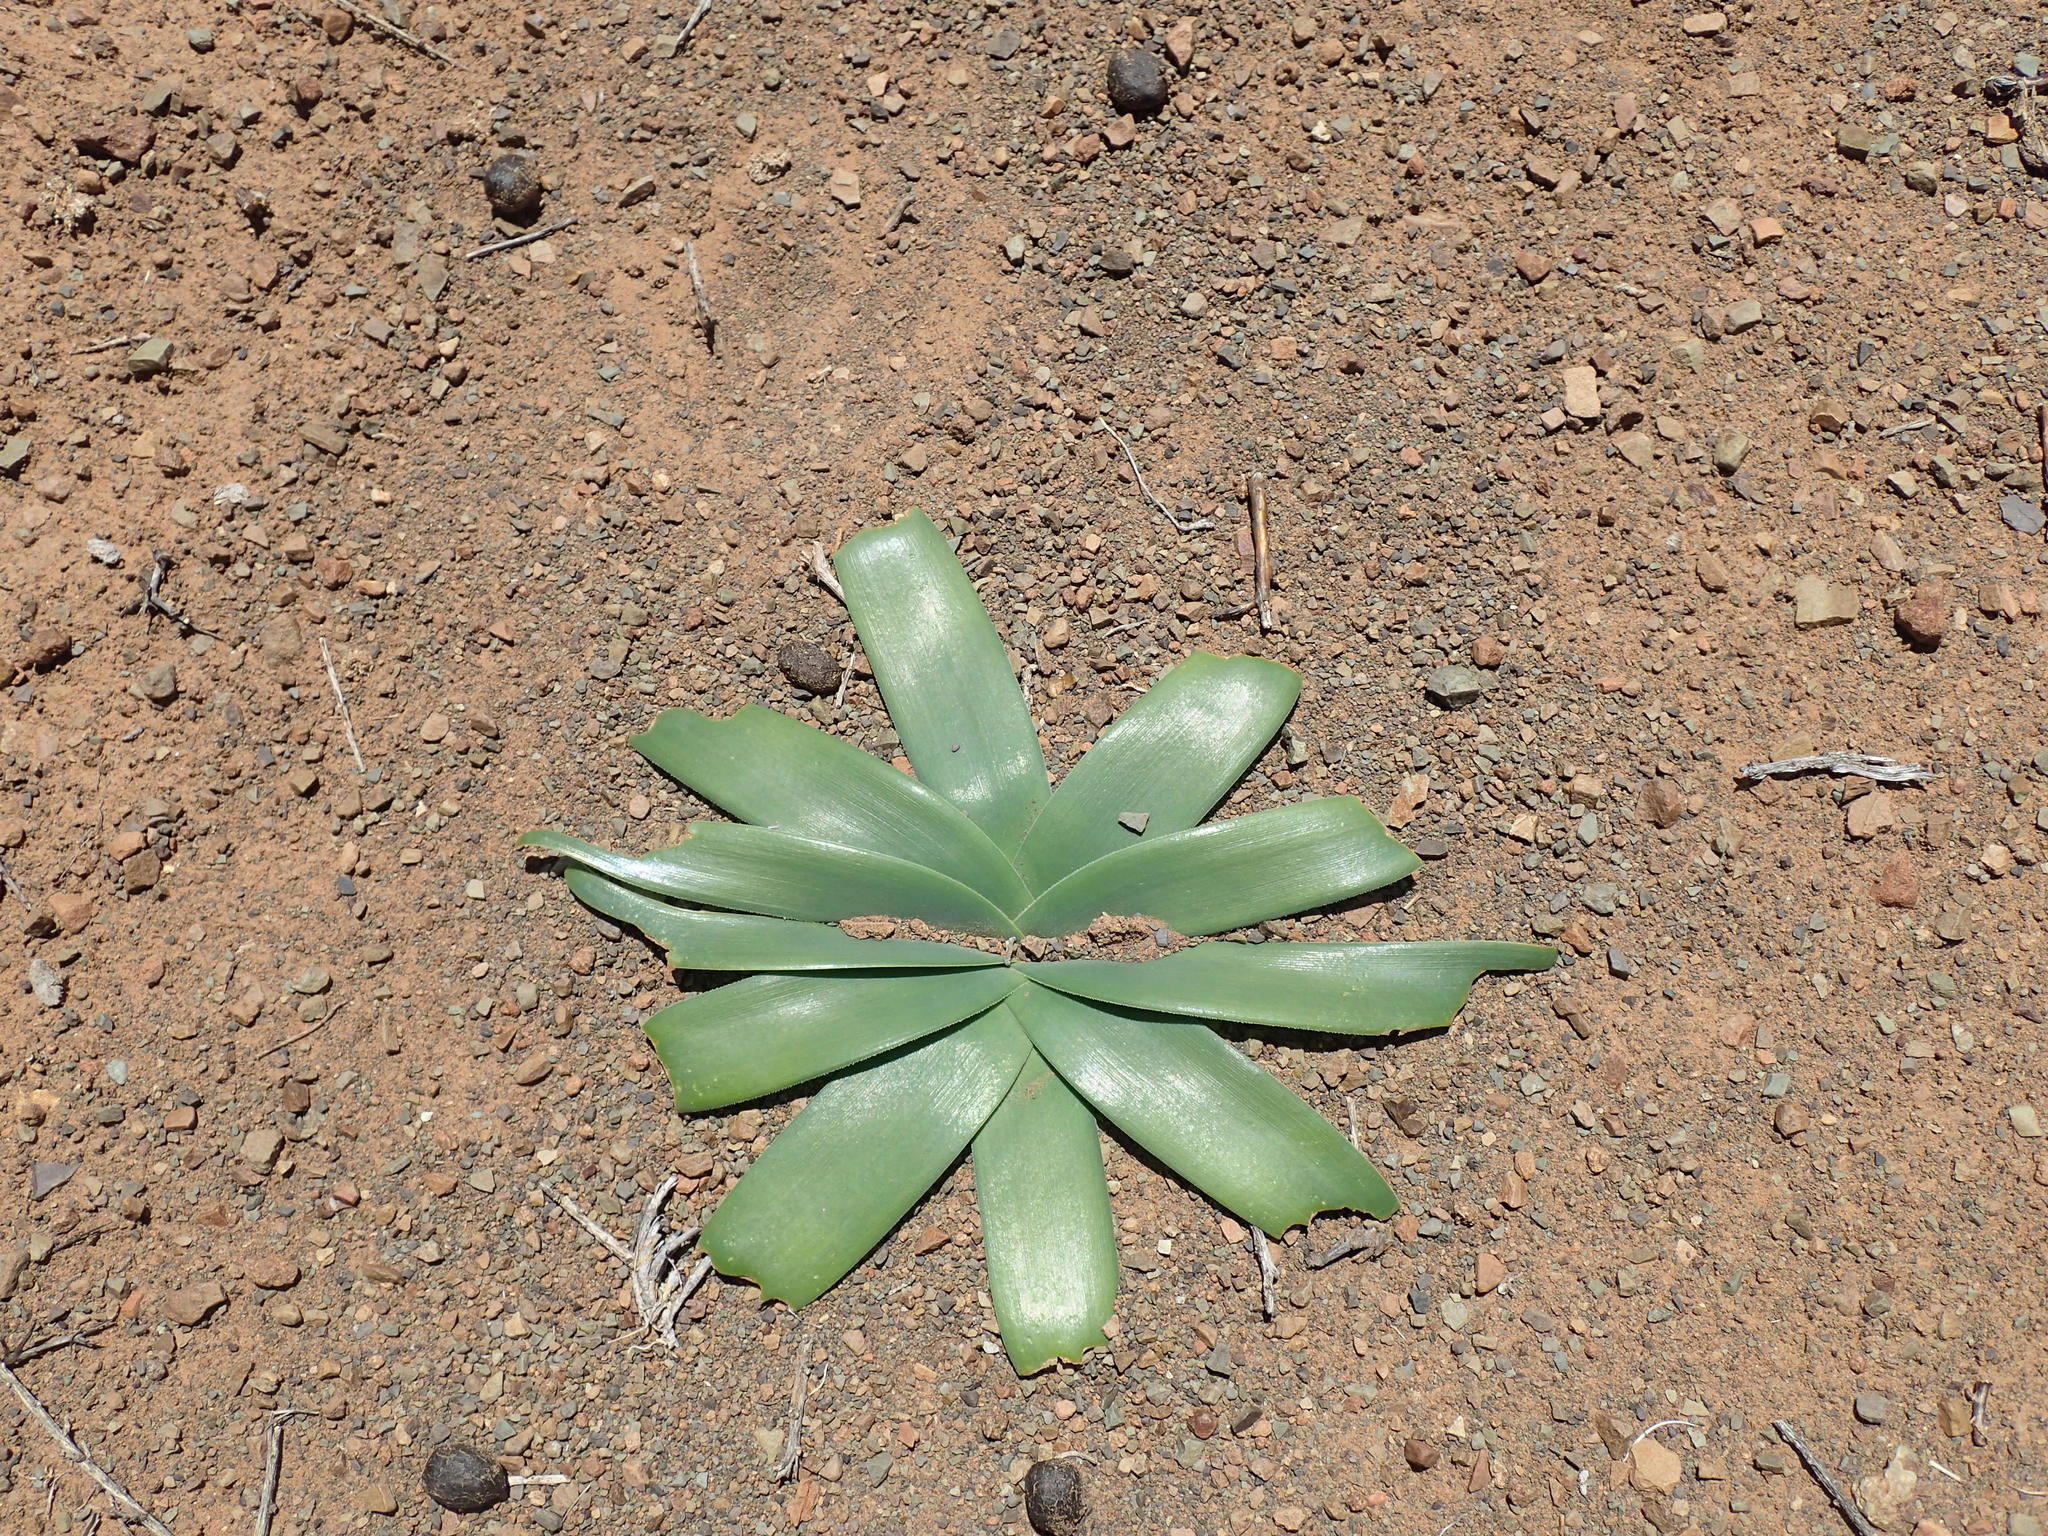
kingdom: Plantae
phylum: Tracheophyta
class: Liliopsida
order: Asparagales
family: Amaryllidaceae
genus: Ammocharis
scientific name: Ammocharis coranica
